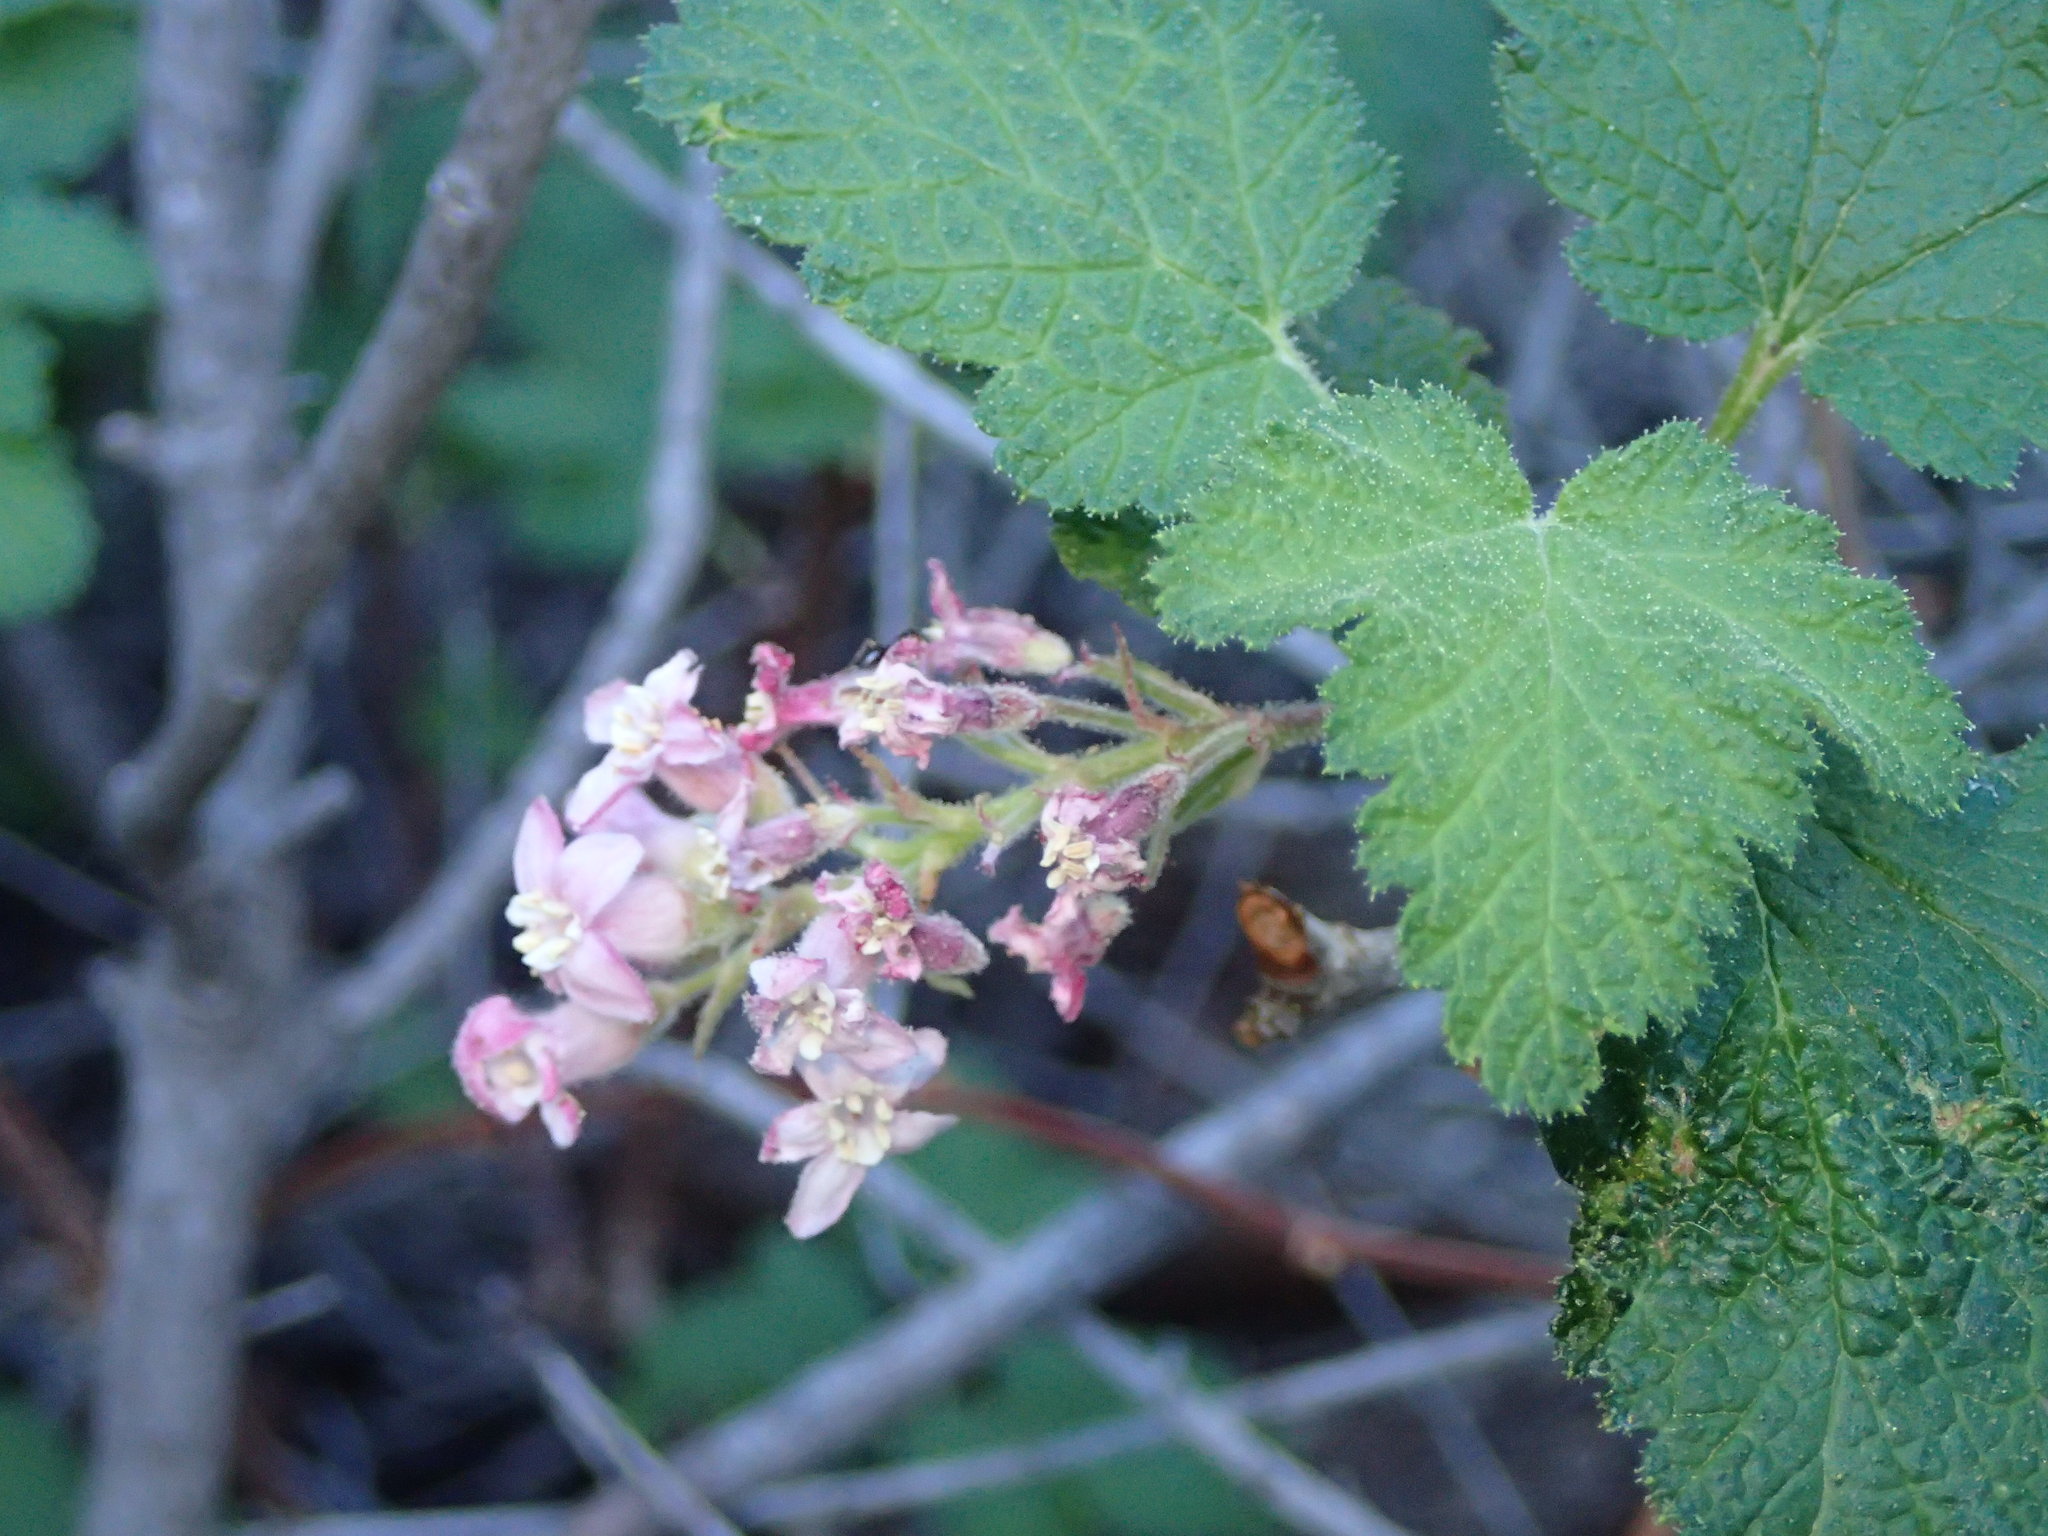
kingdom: Plantae
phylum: Tracheophyta
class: Magnoliopsida
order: Saxifragales
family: Grossulariaceae
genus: Ribes
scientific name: Ribes malvaceum
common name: Chaparral currant
